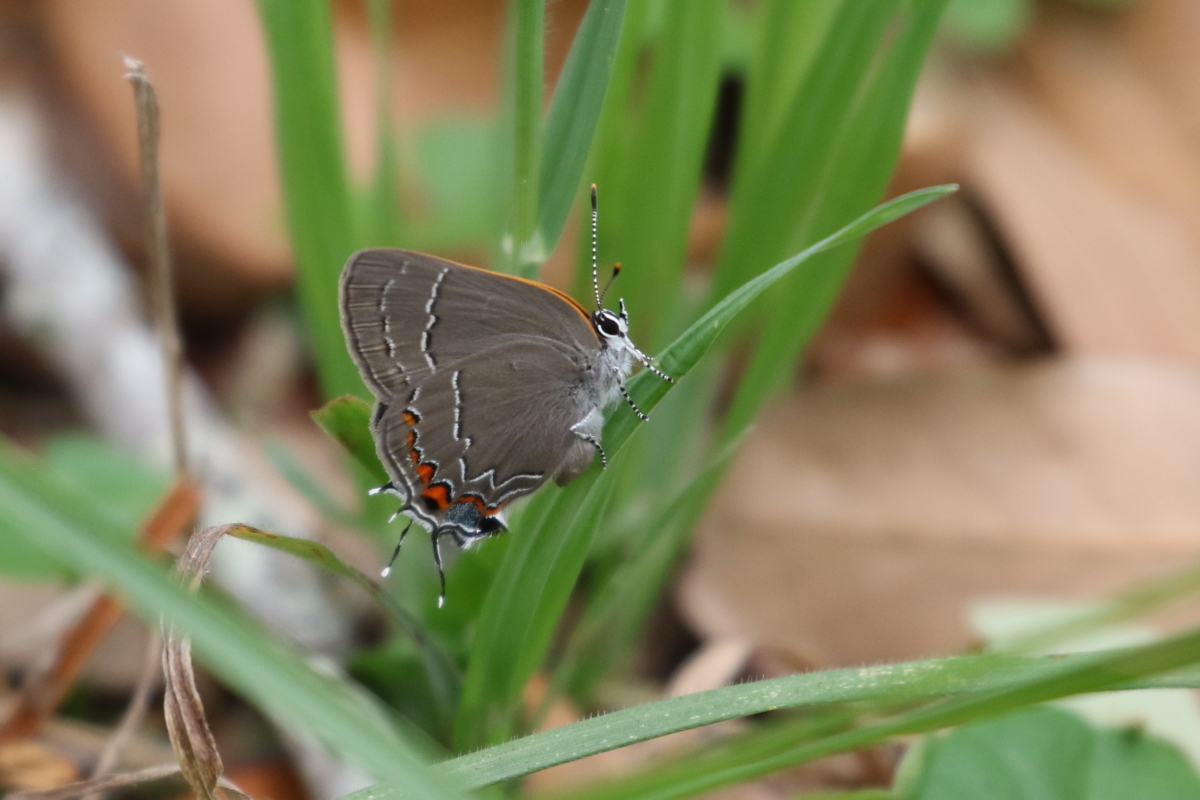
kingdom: Animalia
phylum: Arthropoda
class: Insecta
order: Lepidoptera
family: Lycaenidae
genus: Fixsenia
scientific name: Fixsenia favonius
